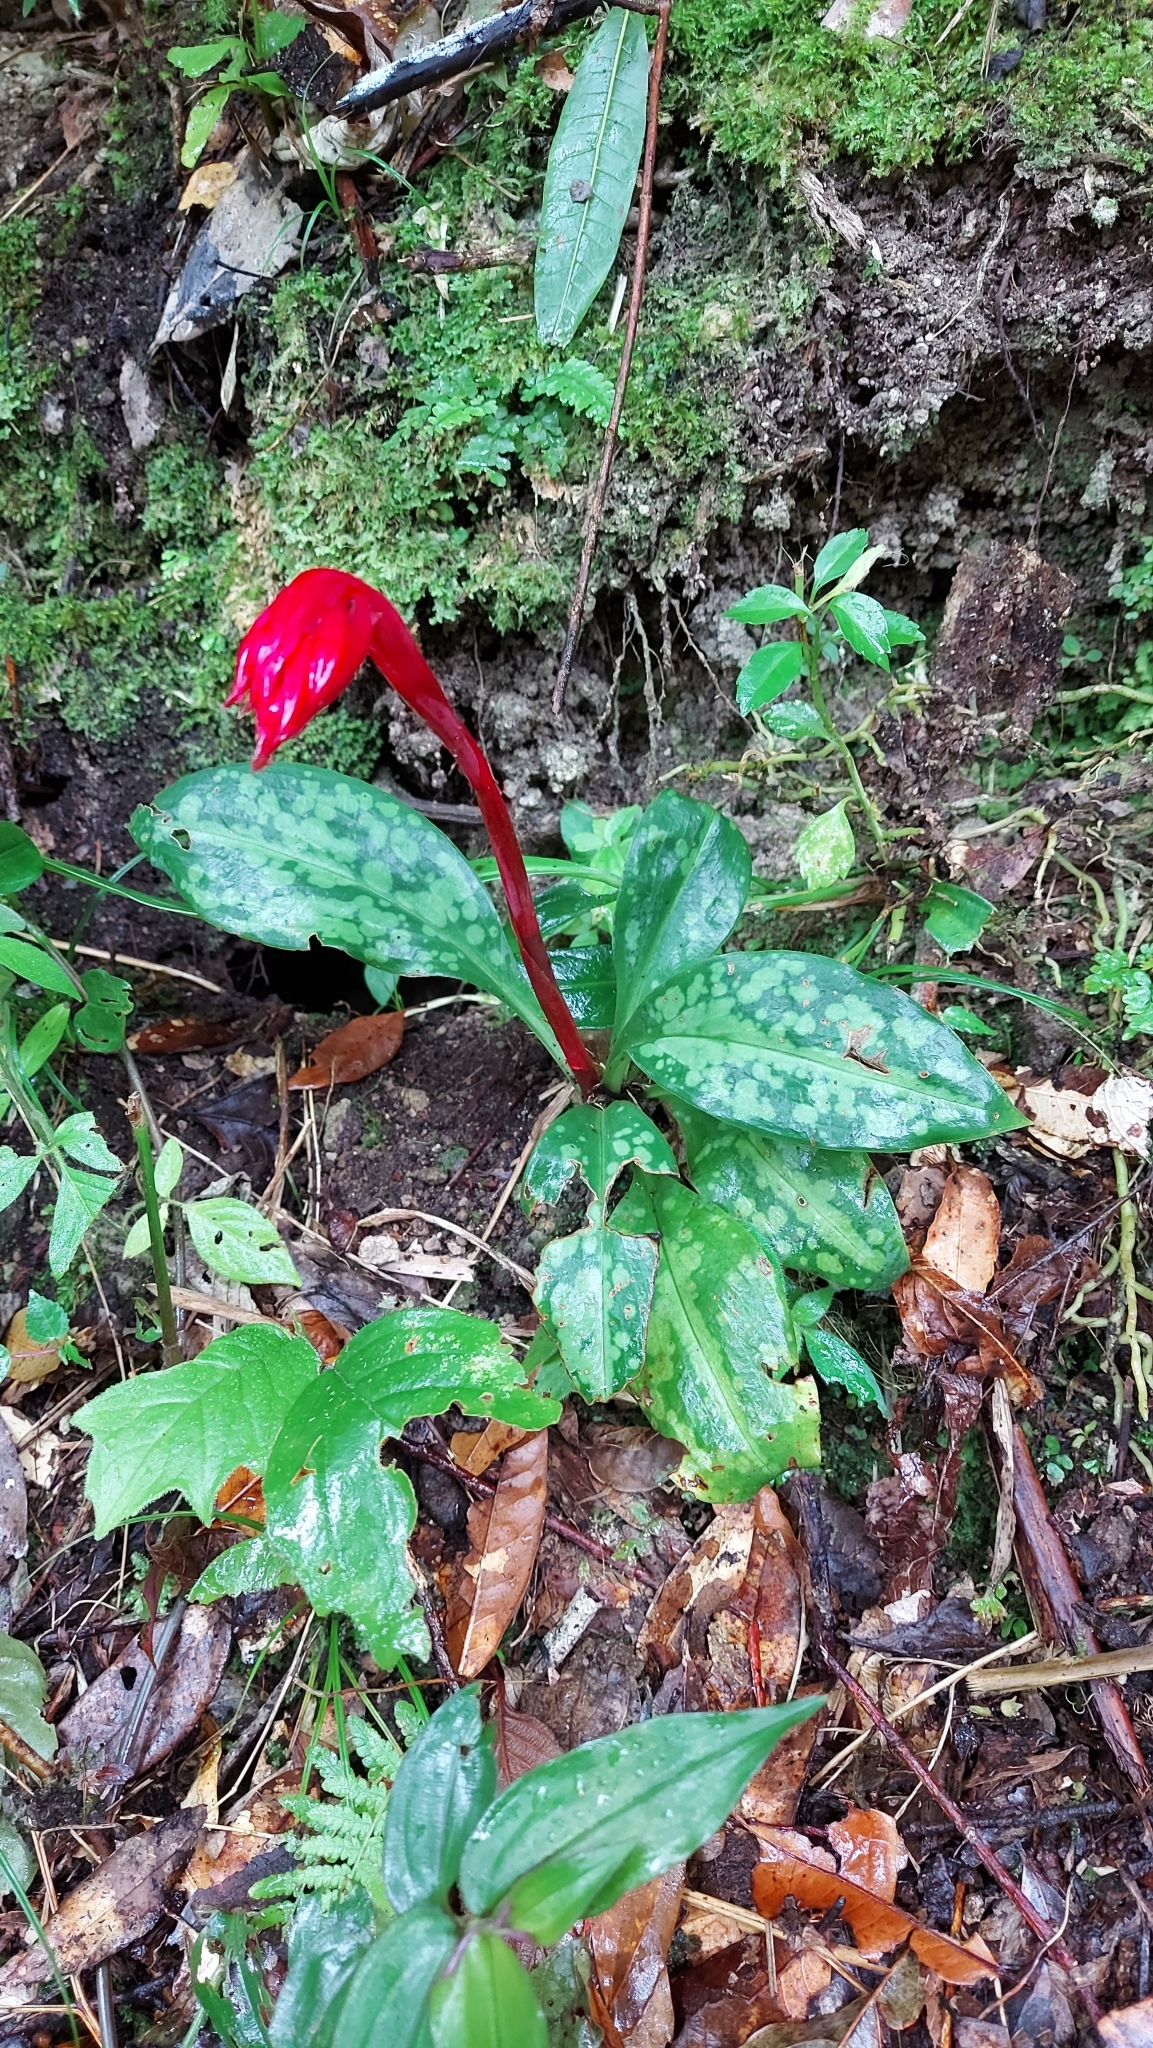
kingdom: Plantae
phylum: Tracheophyta
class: Liliopsida
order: Asparagales
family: Orchidaceae
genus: Stenorrhynchos
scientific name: Stenorrhynchos albidomaculatum
